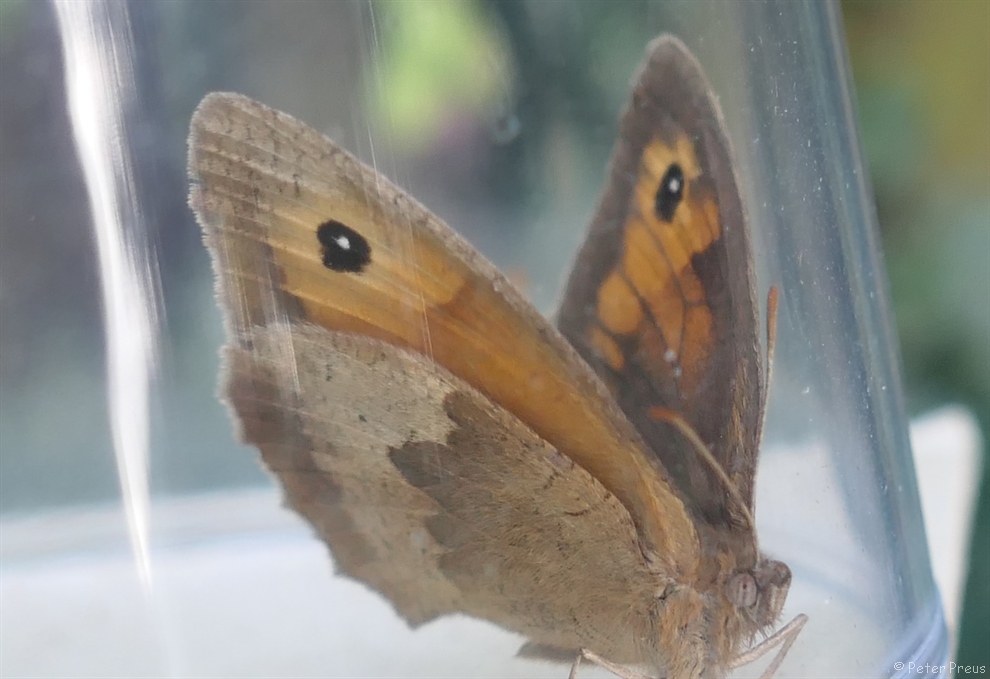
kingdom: Animalia
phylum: Arthropoda
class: Insecta
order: Lepidoptera
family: Nymphalidae
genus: Maniola
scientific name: Maniola jurtina
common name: Meadow brown
